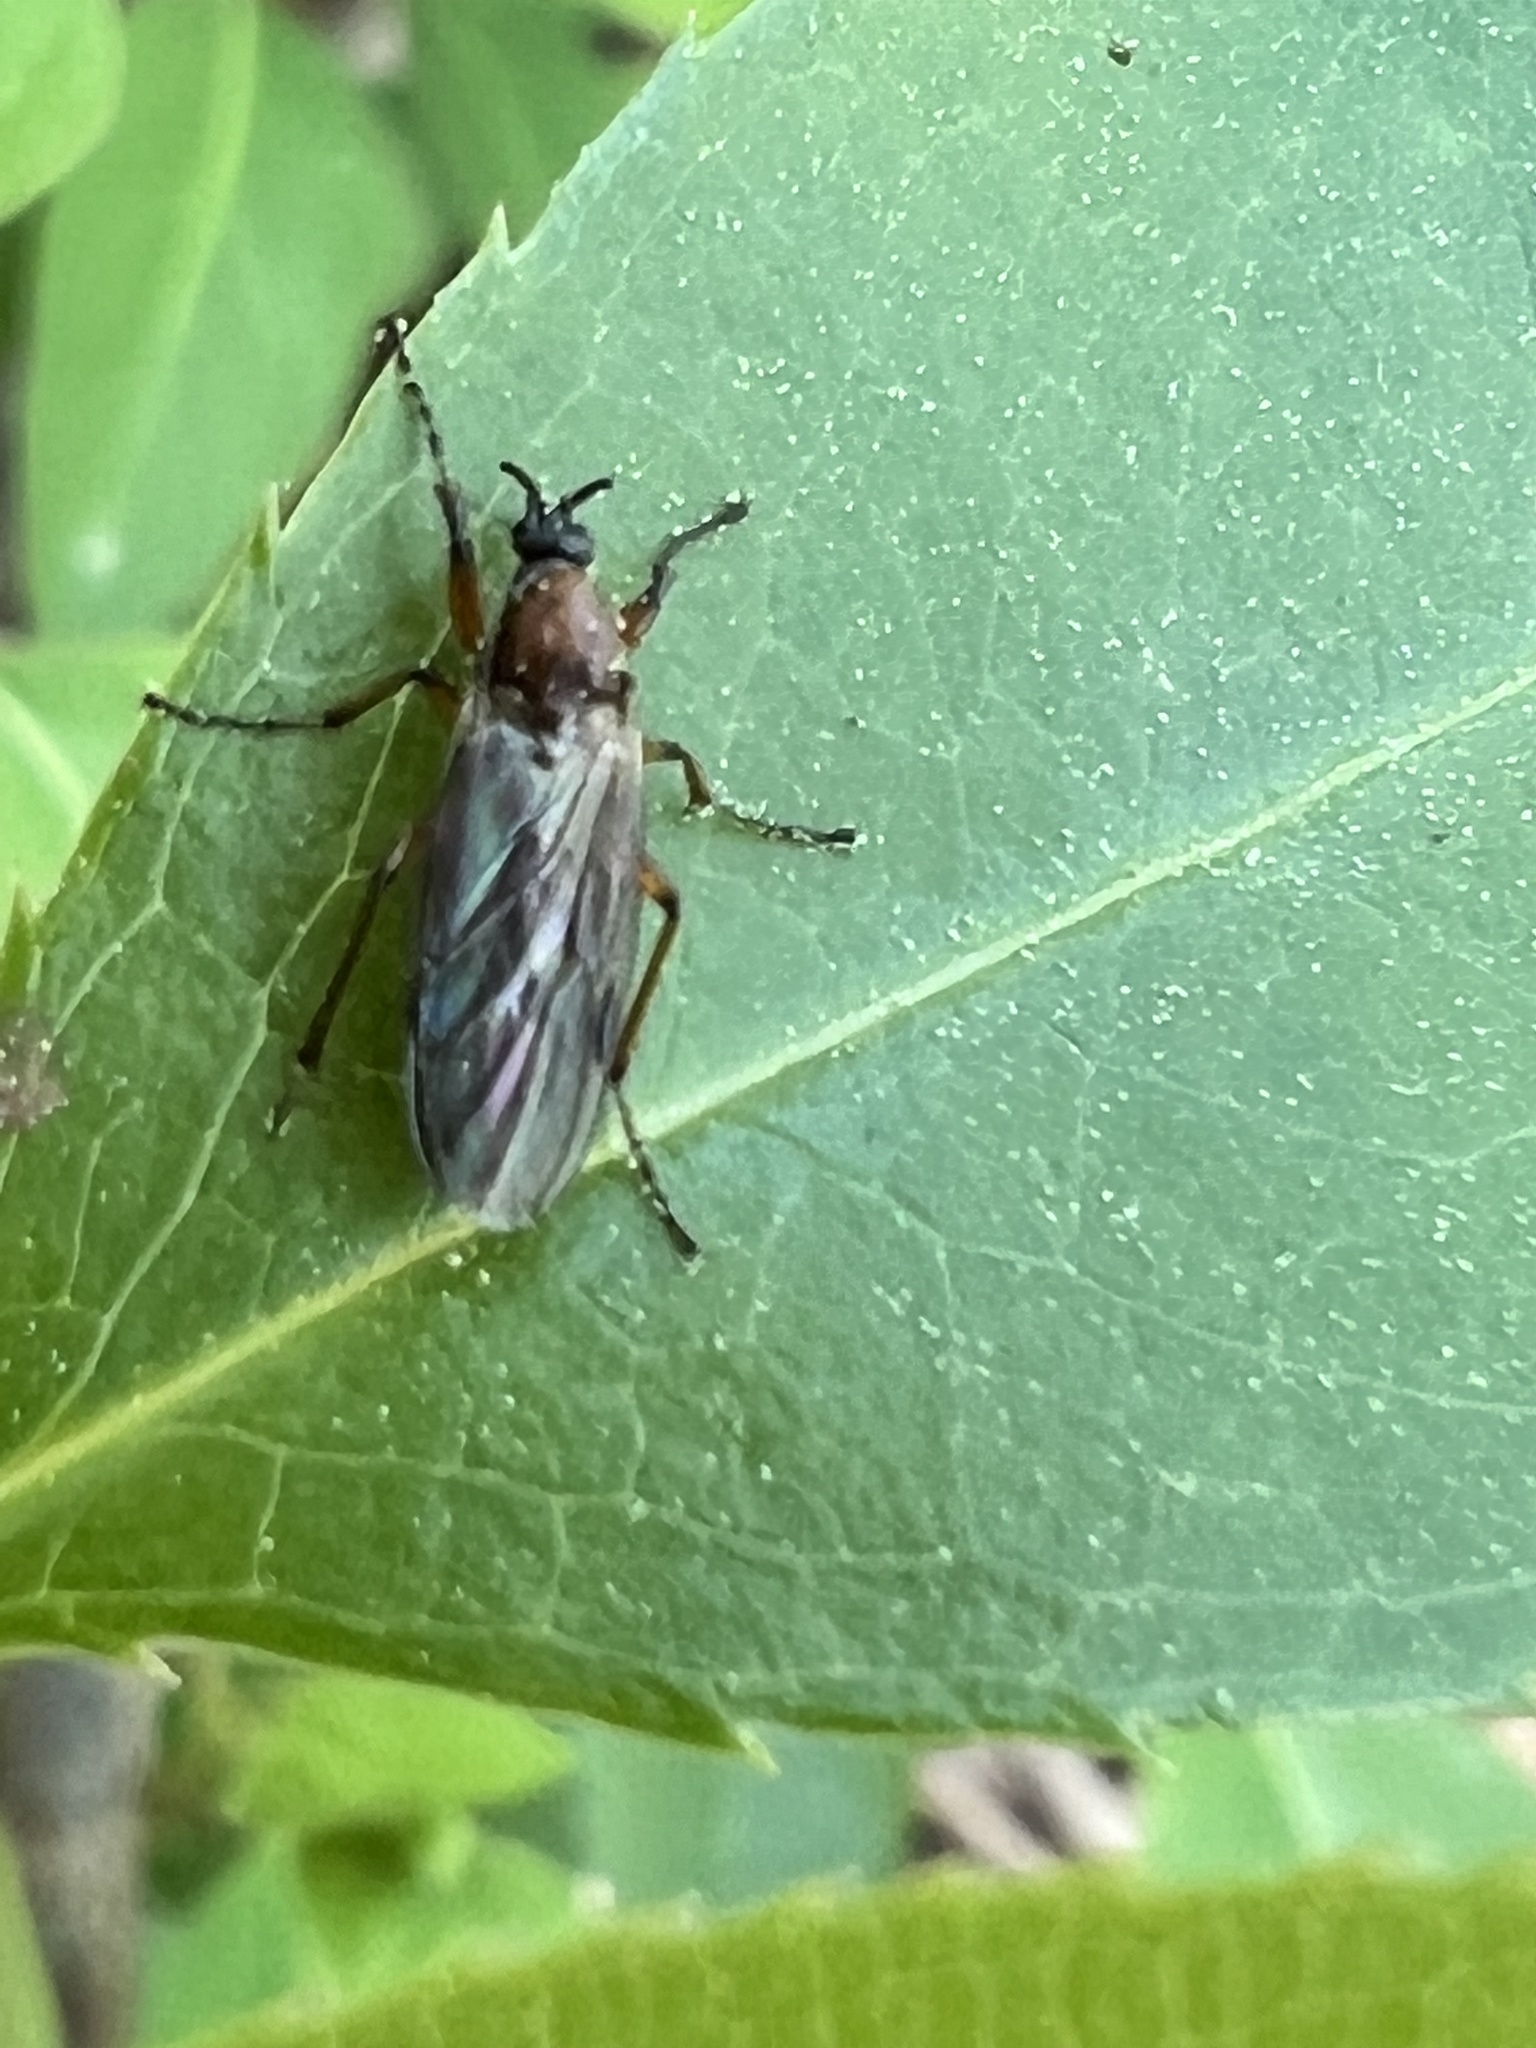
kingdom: Animalia
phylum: Arthropoda
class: Insecta
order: Diptera
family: Bibionidae
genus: Bibio
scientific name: Bibio articulatus
